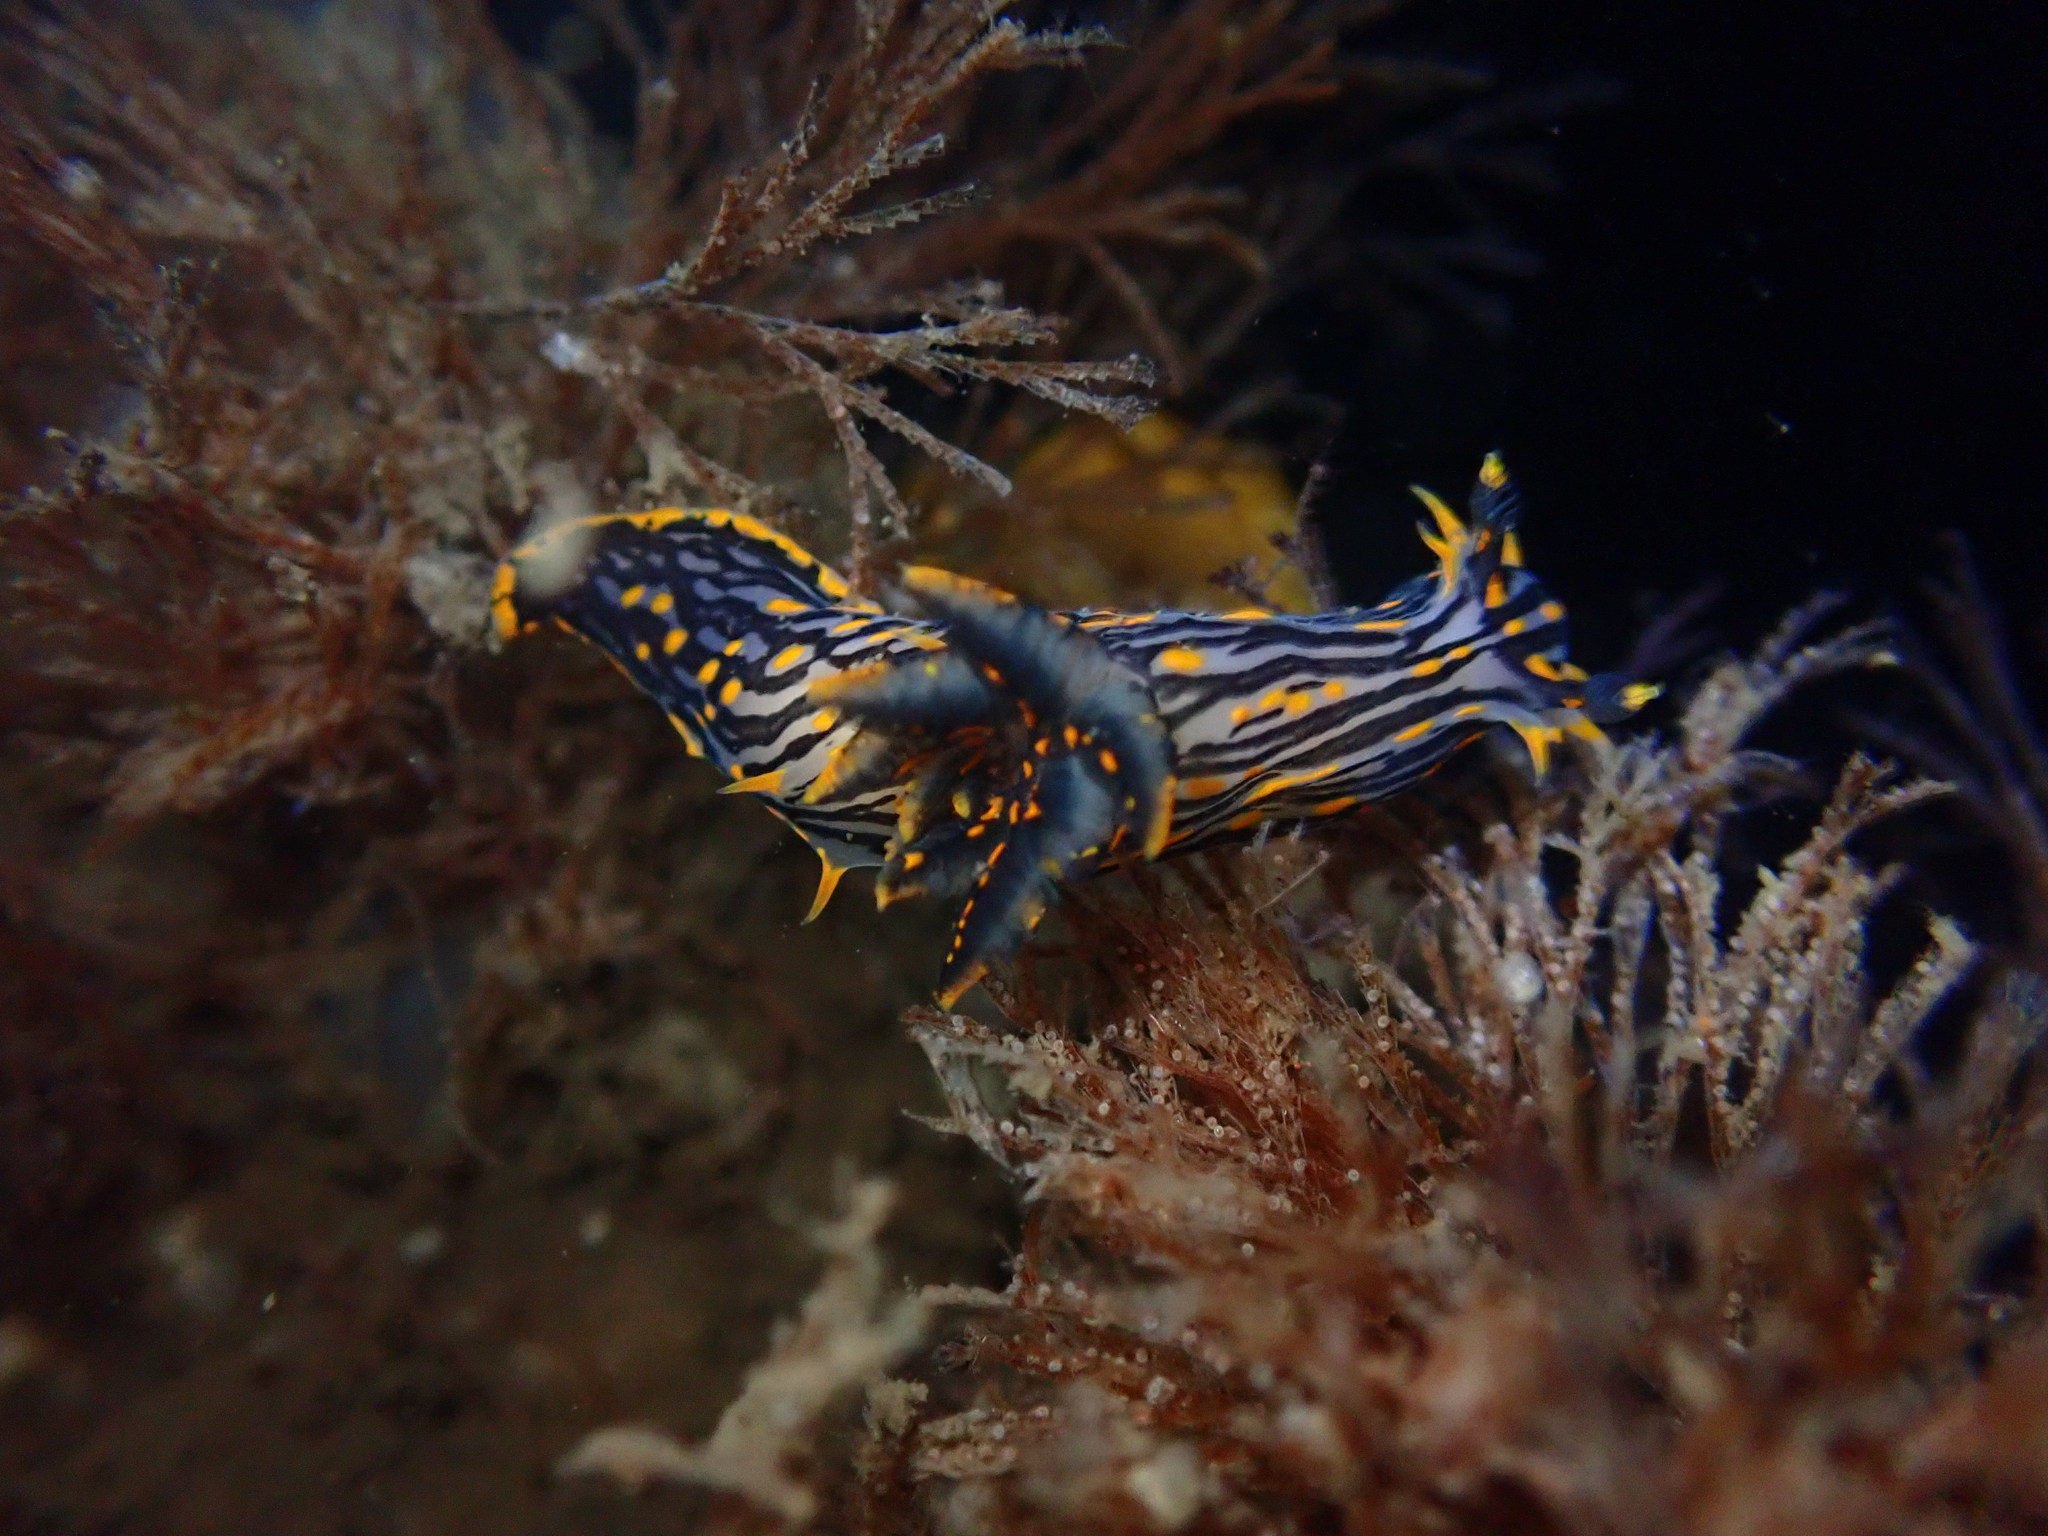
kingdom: Animalia
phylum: Mollusca
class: Gastropoda
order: Nudibranchia
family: Polyceridae
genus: Polycera
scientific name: Polycera atra
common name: Orange-spike polycera
